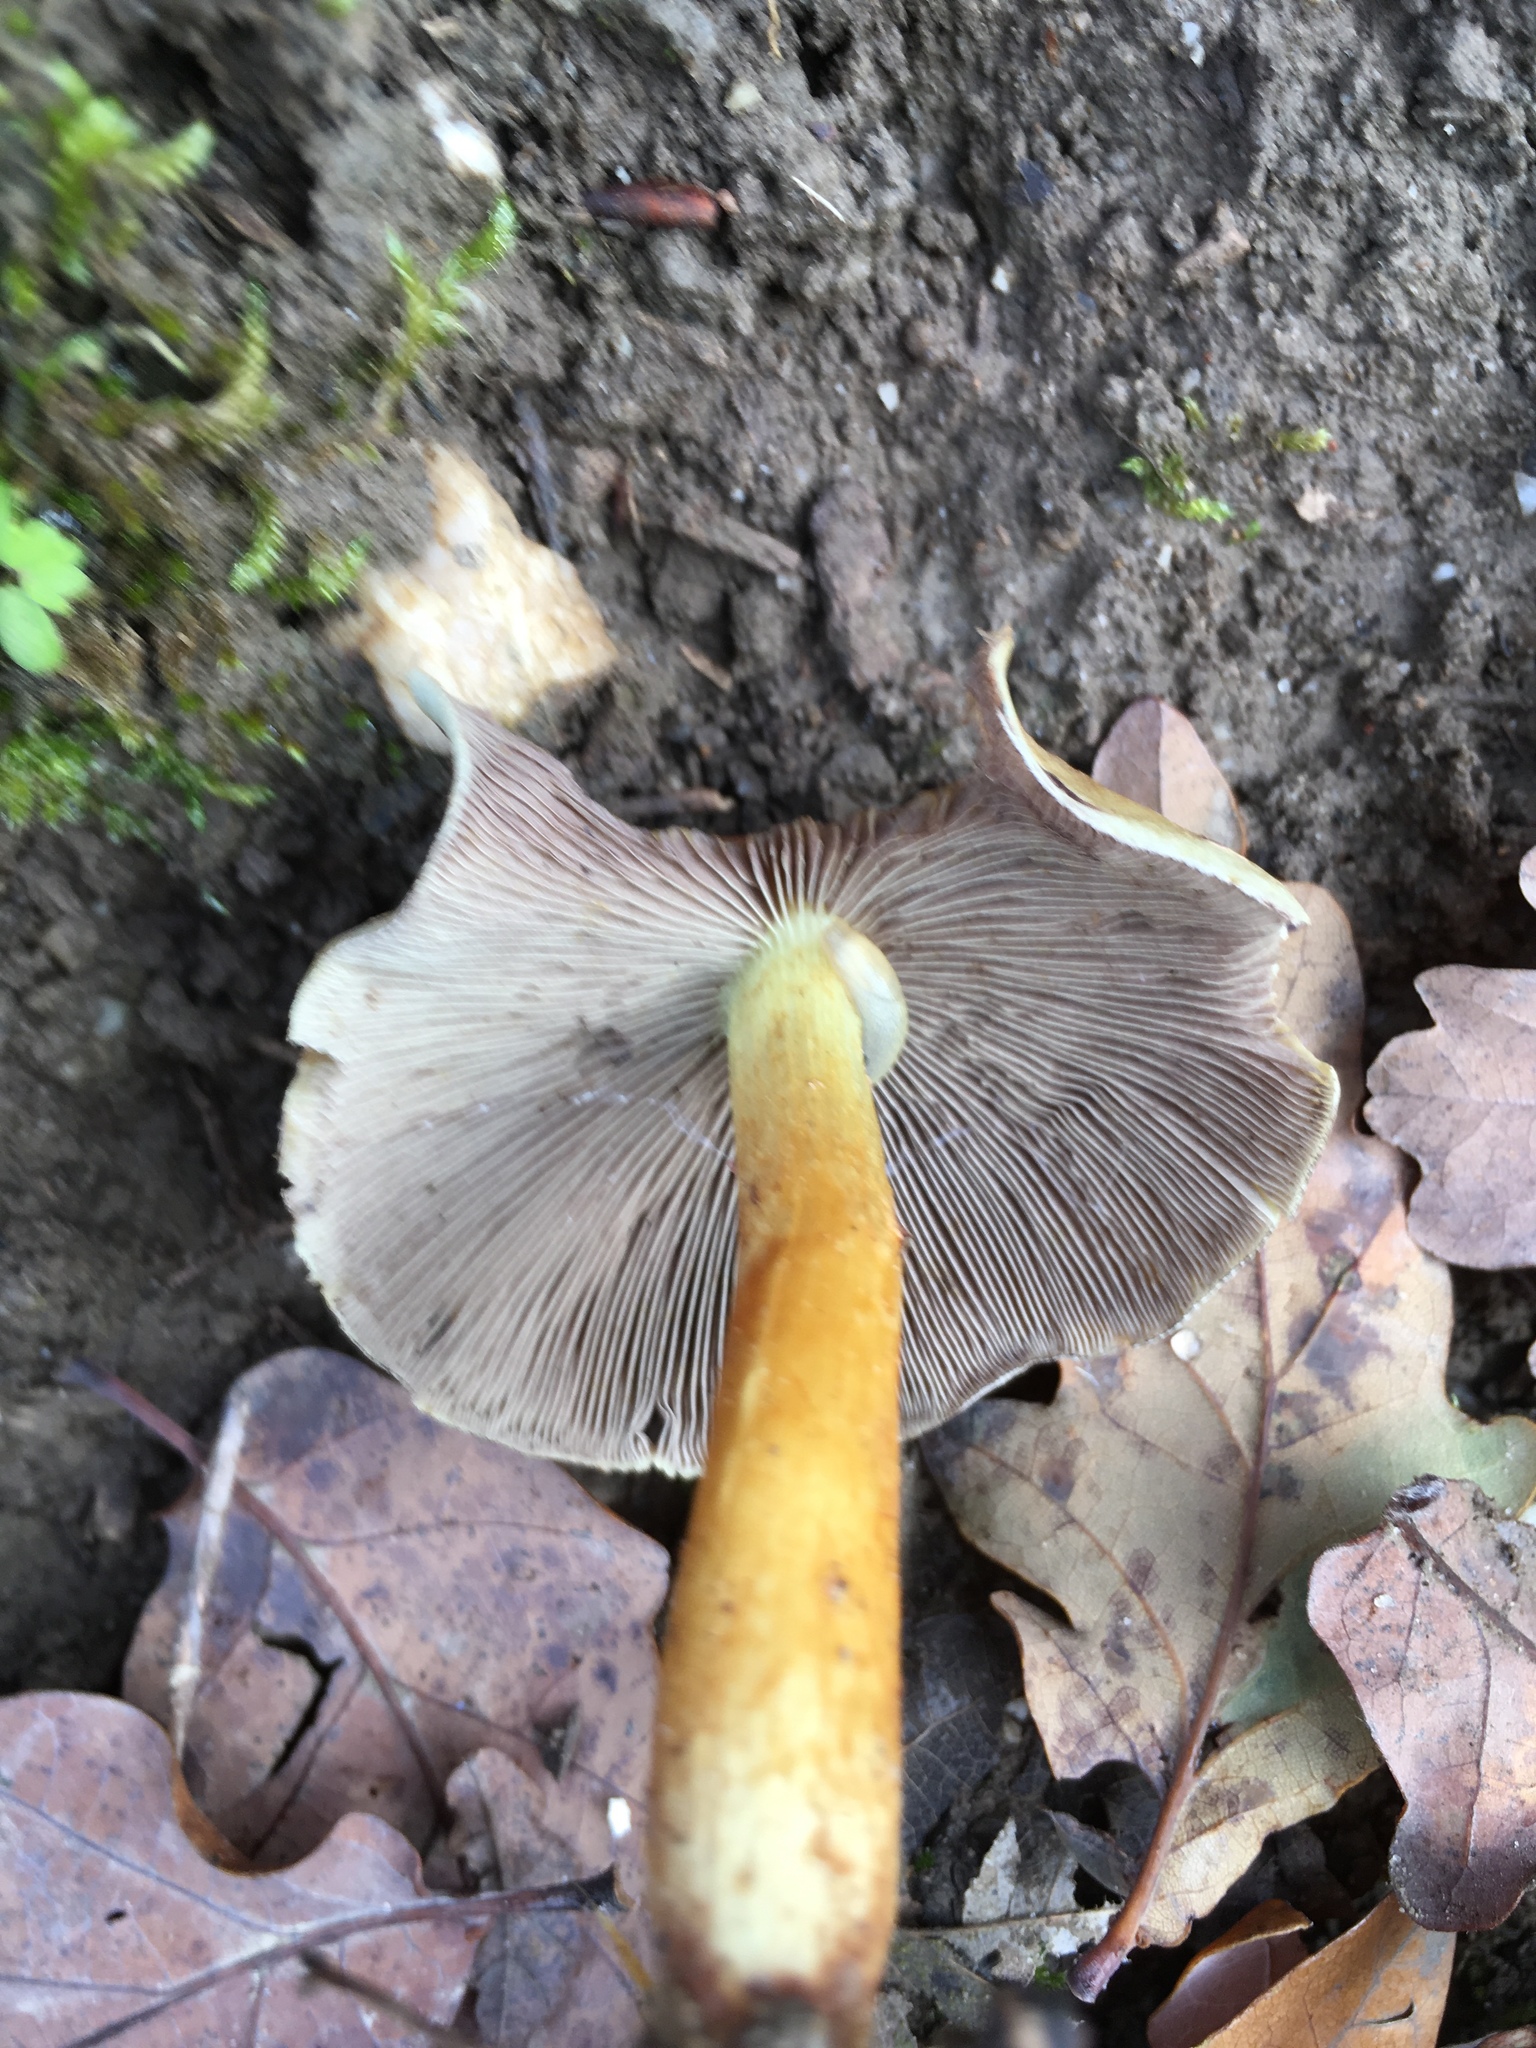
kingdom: Fungi
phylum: Basidiomycota
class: Agaricomycetes
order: Agaricales
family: Strophariaceae
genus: Hypholoma
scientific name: Hypholoma capnoides
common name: Conifer tuft
